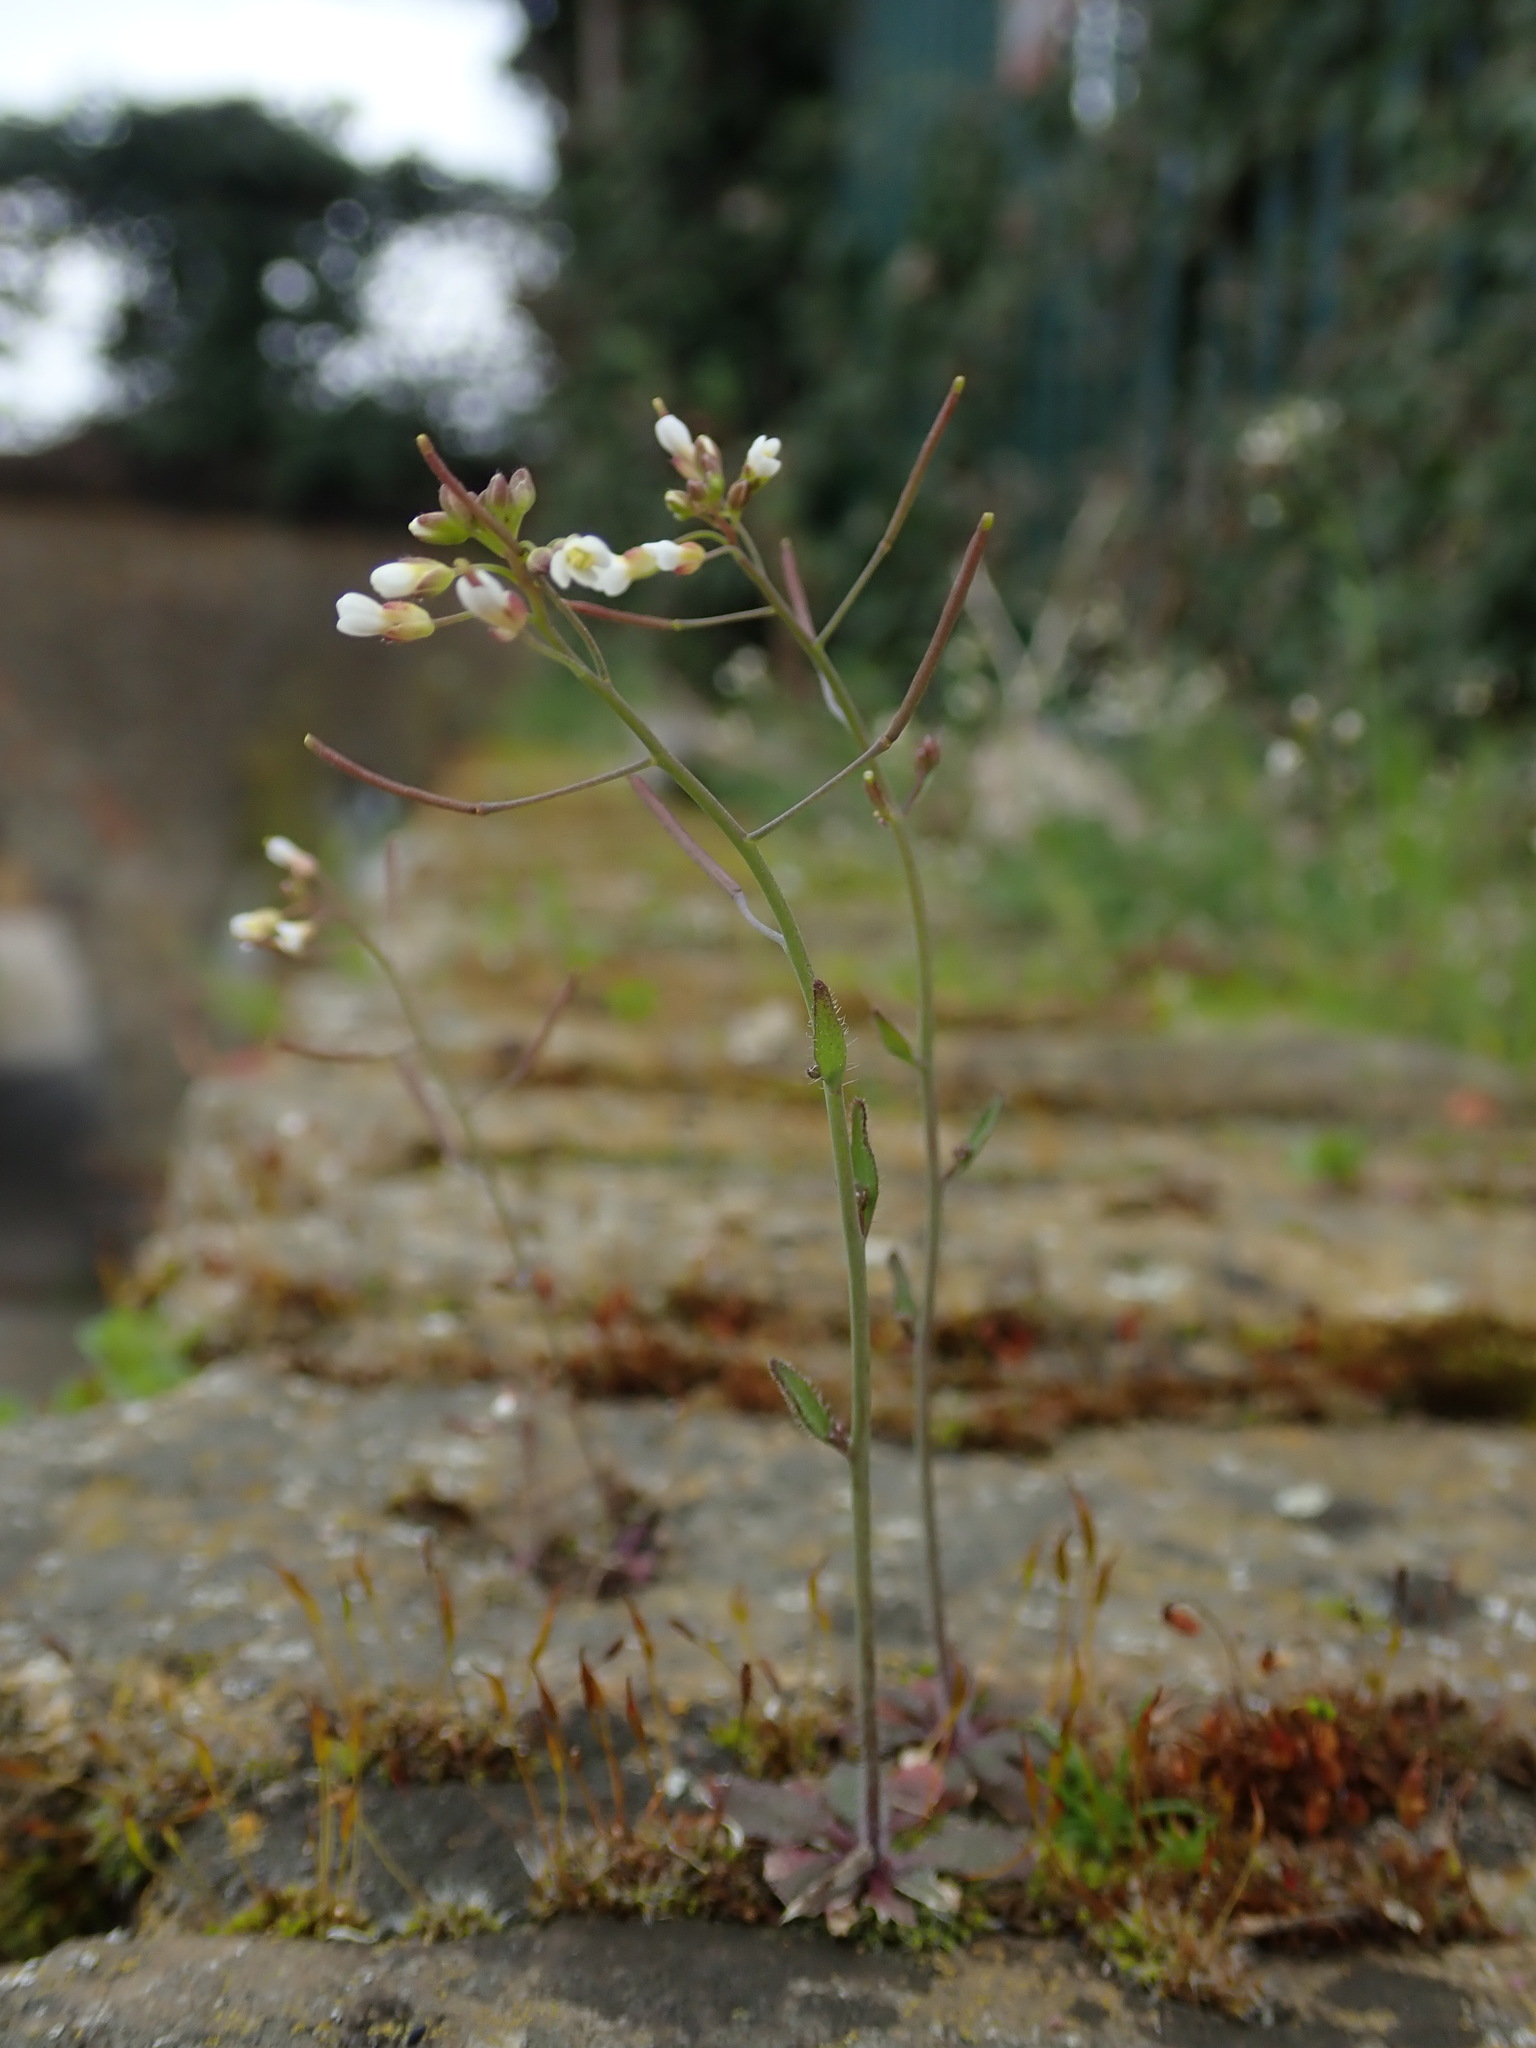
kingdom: Plantae
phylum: Tracheophyta
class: Magnoliopsida
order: Brassicales
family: Brassicaceae
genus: Arabidopsis
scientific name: Arabidopsis thaliana
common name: Thale cress
